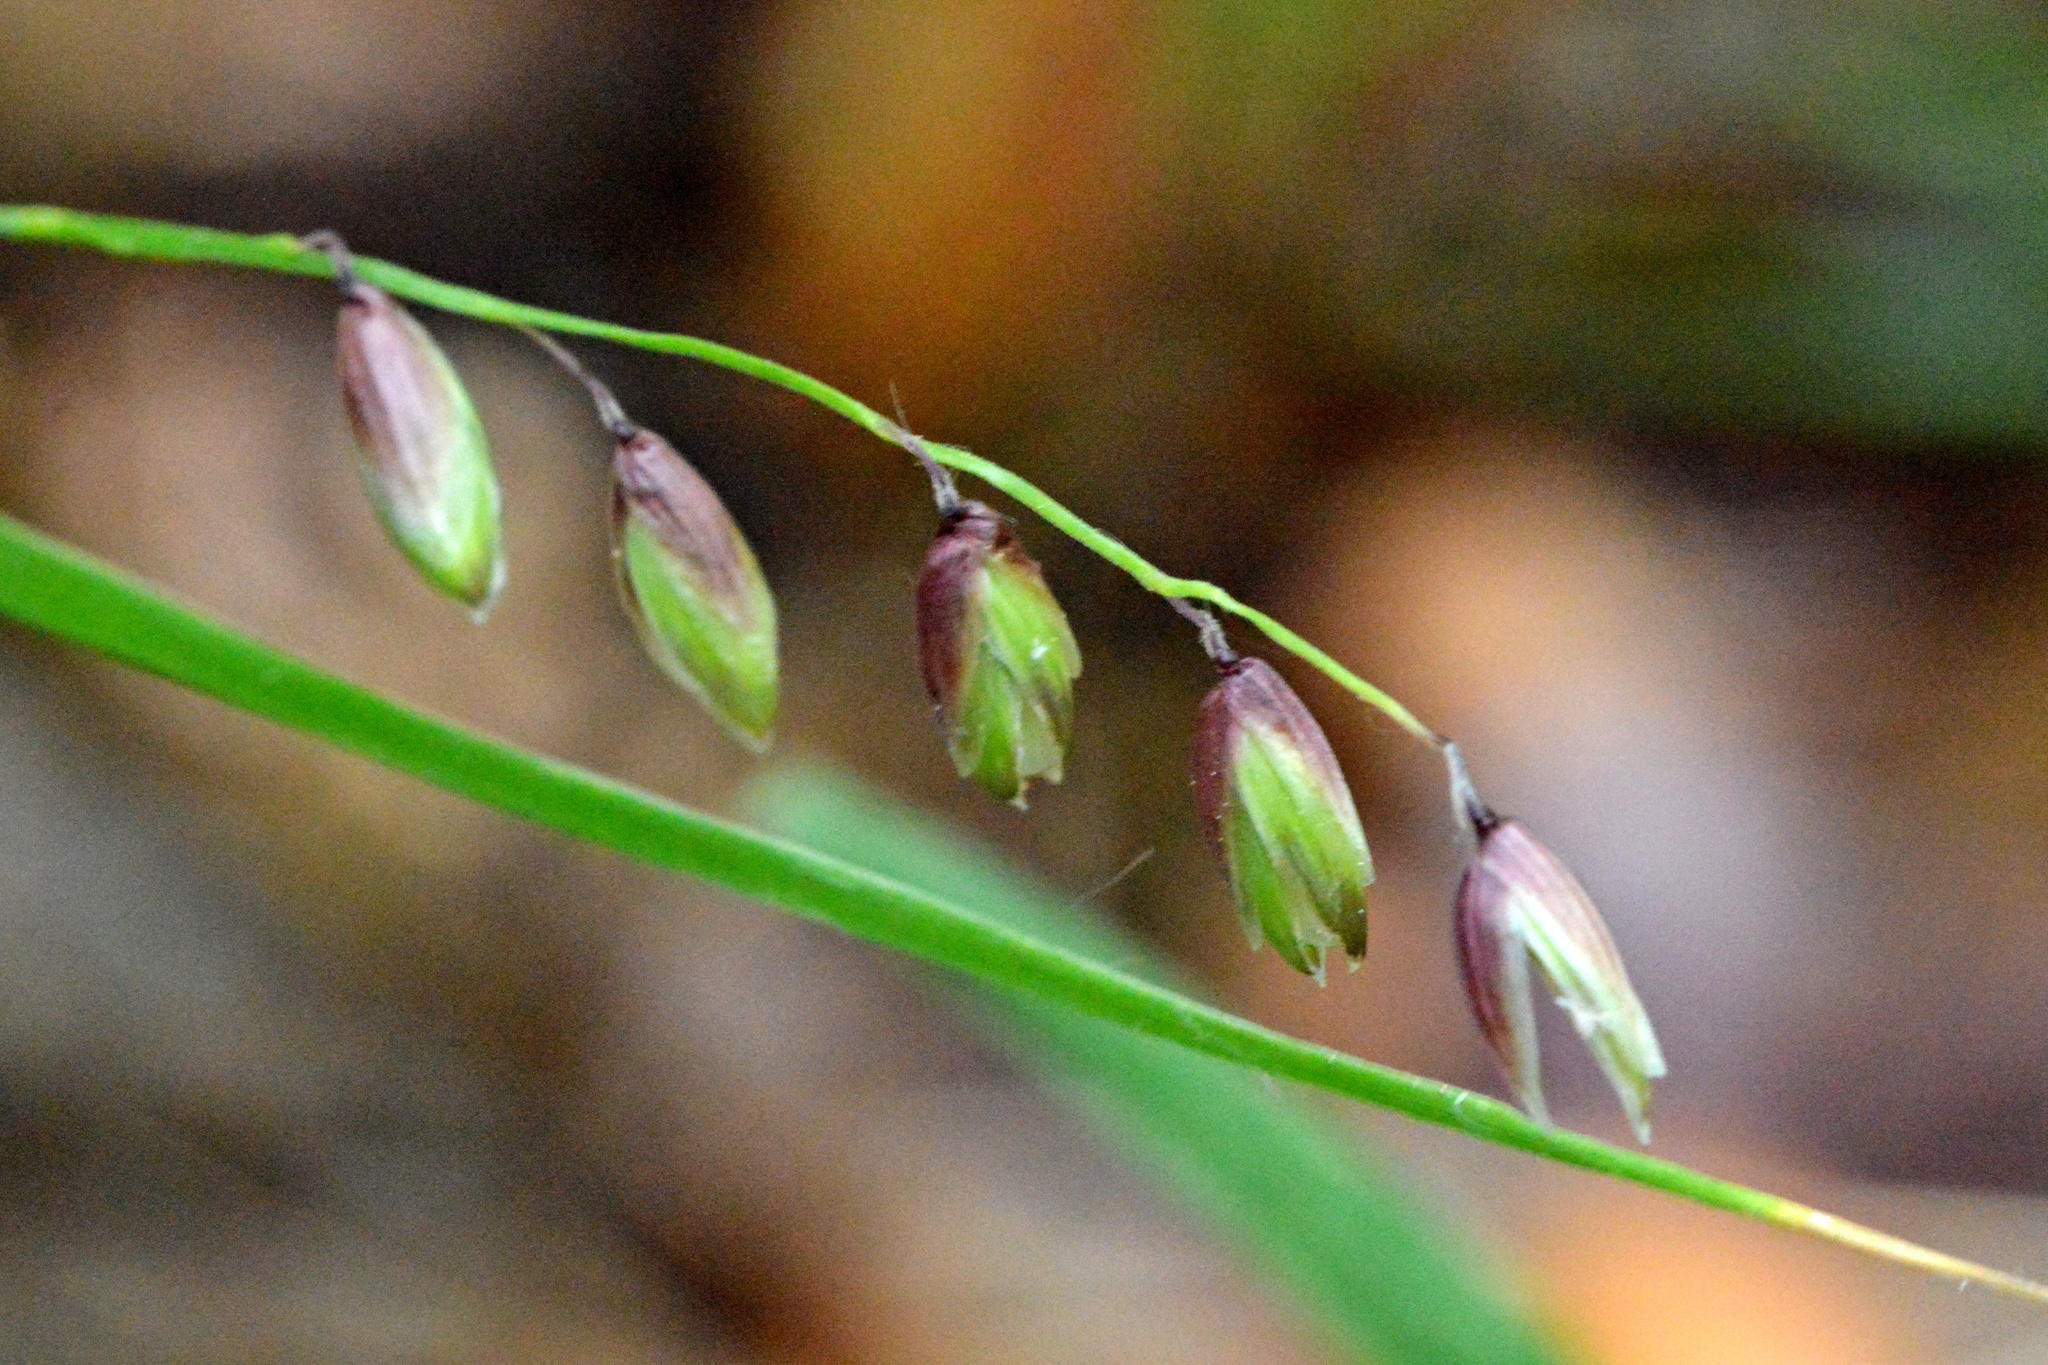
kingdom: Plantae
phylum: Tracheophyta
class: Liliopsida
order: Poales
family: Poaceae
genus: Melica
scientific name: Melica nutans
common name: Mountain melick
